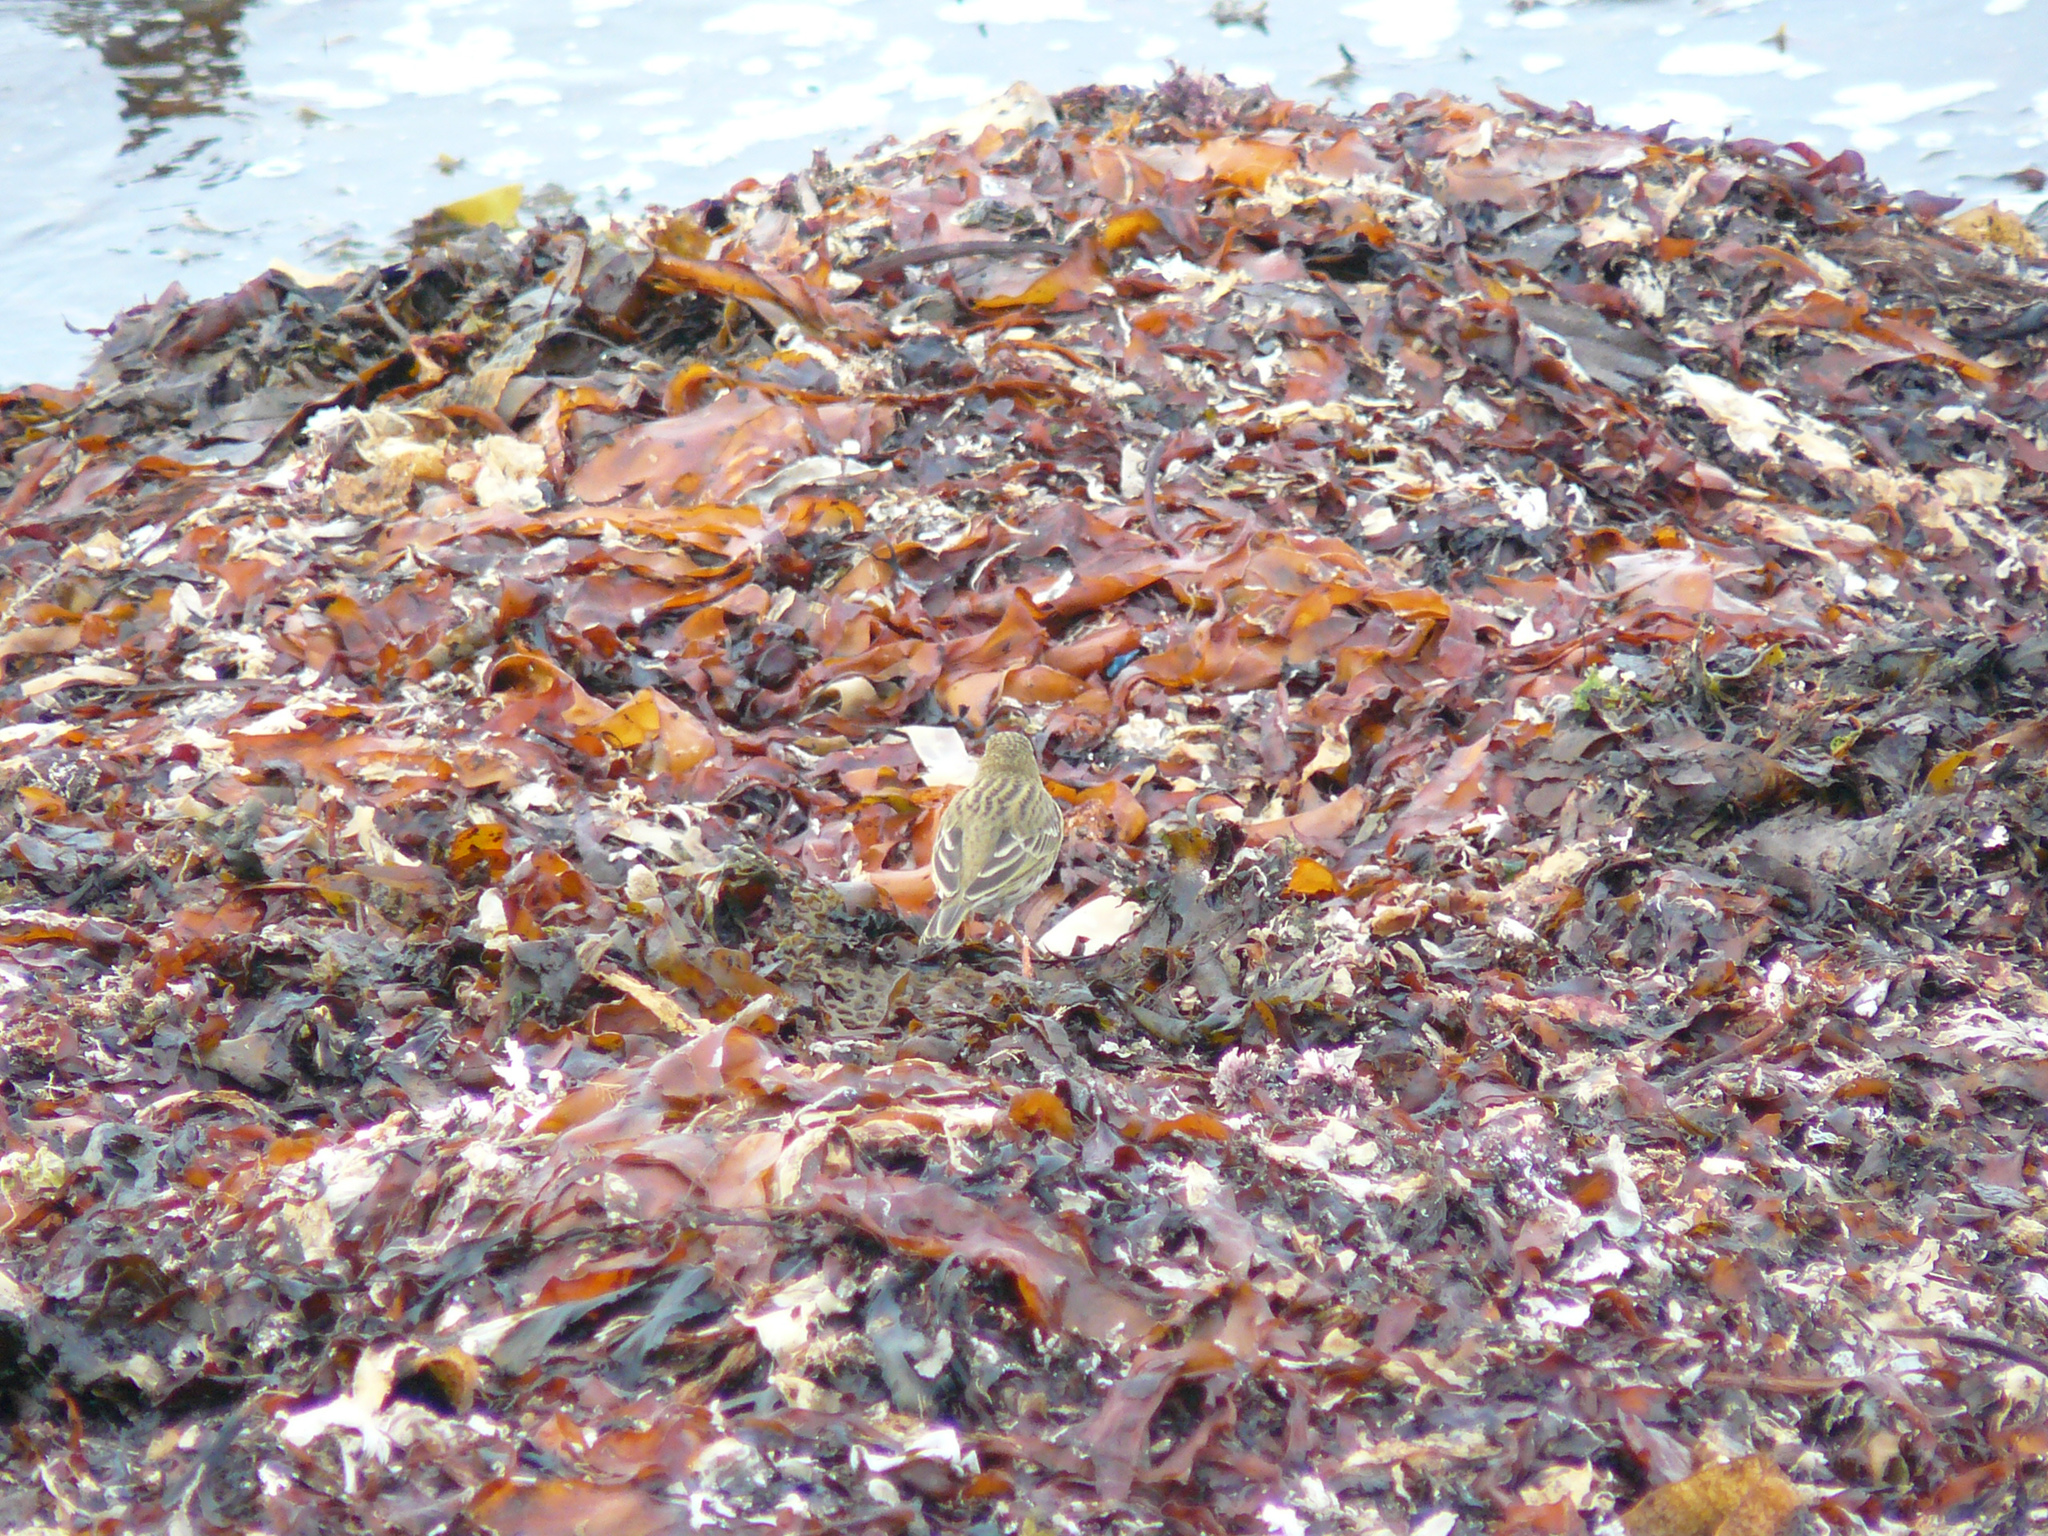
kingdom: Animalia
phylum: Chordata
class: Aves
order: Passeriformes
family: Motacillidae
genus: Anthus
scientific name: Anthus pratensis
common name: Meadow pipit
